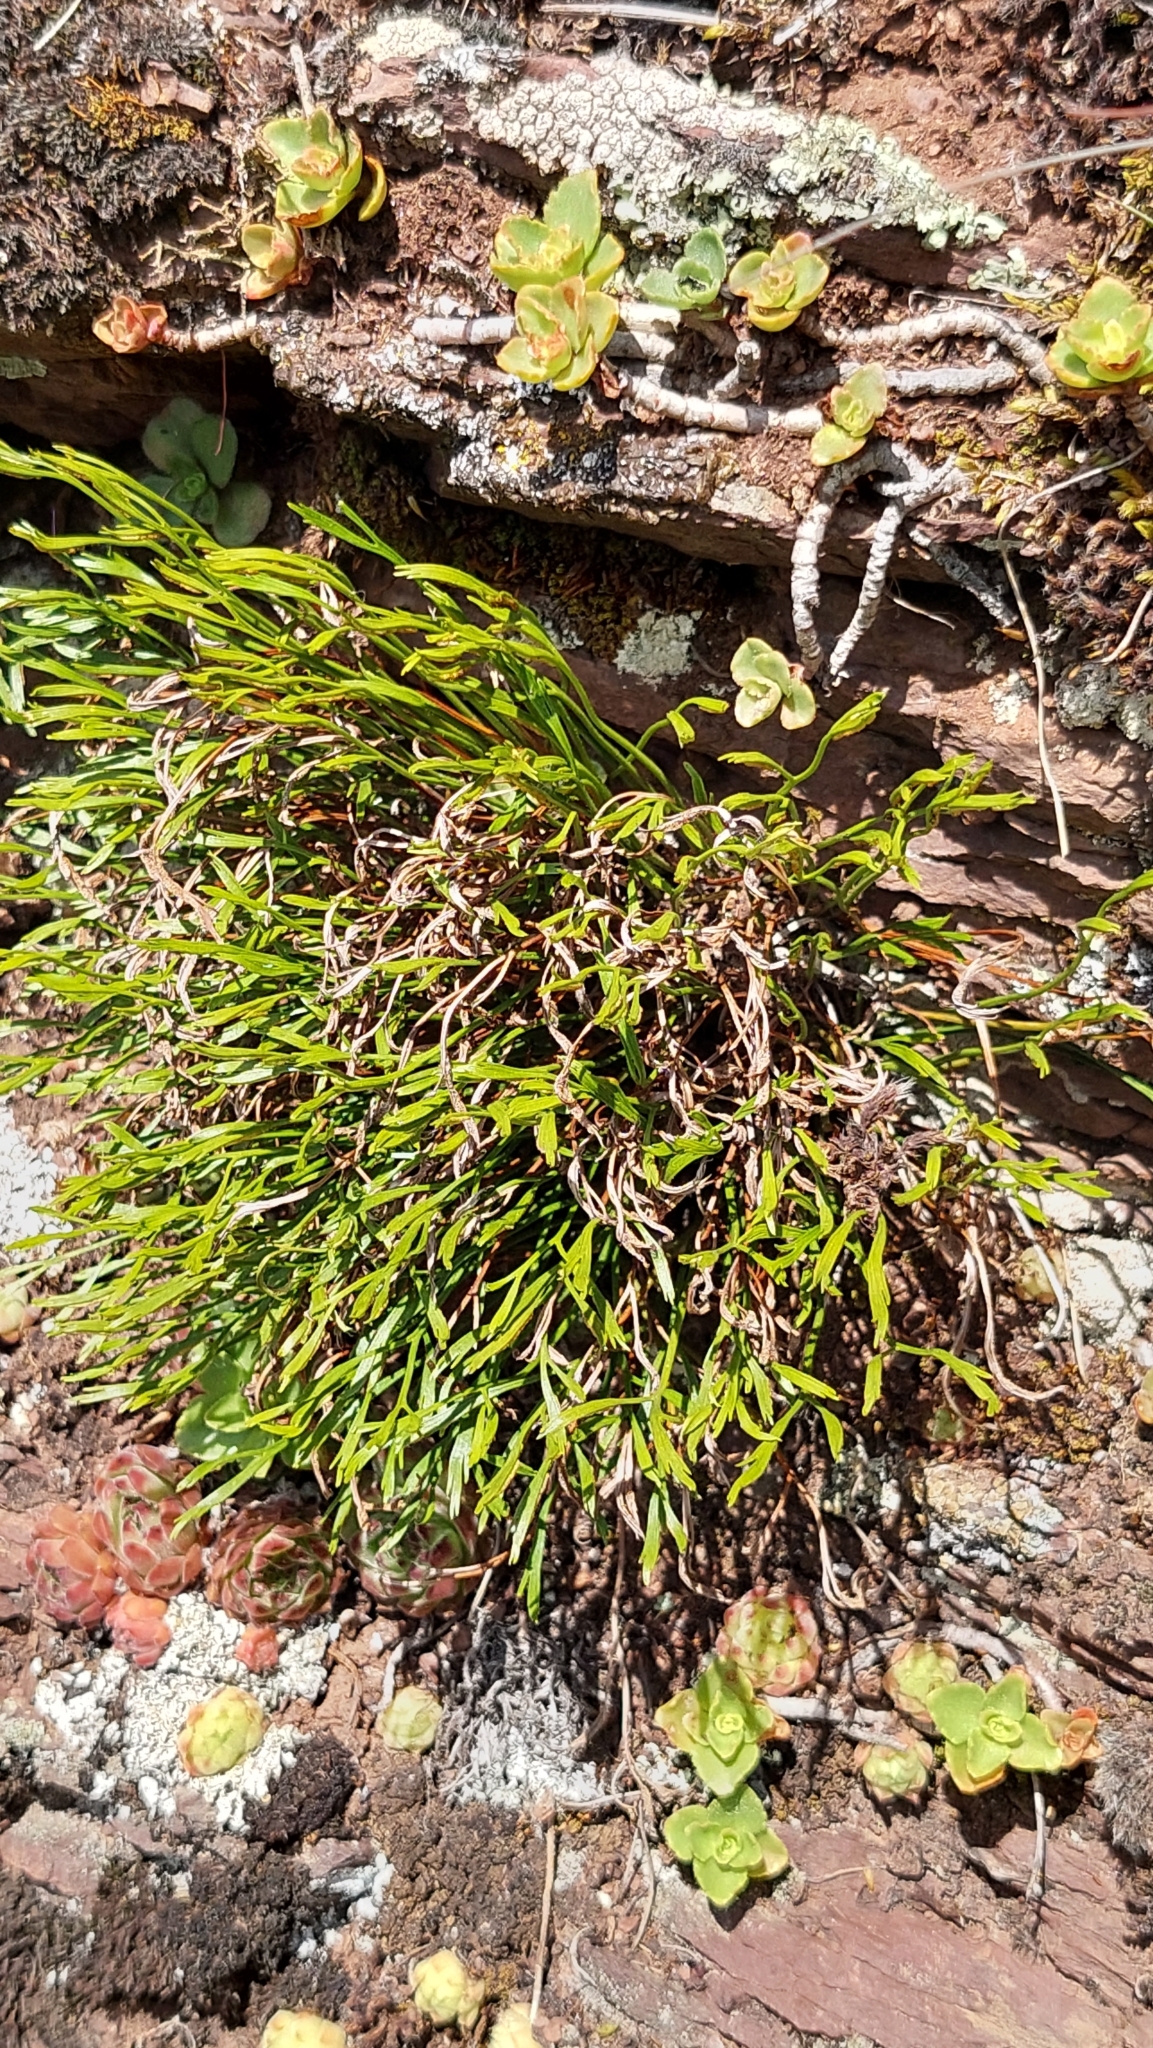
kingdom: Plantae
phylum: Tracheophyta
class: Polypodiopsida
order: Polypodiales
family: Aspleniaceae
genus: Asplenium
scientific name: Asplenium septentrionale
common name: Forked spleenwort
